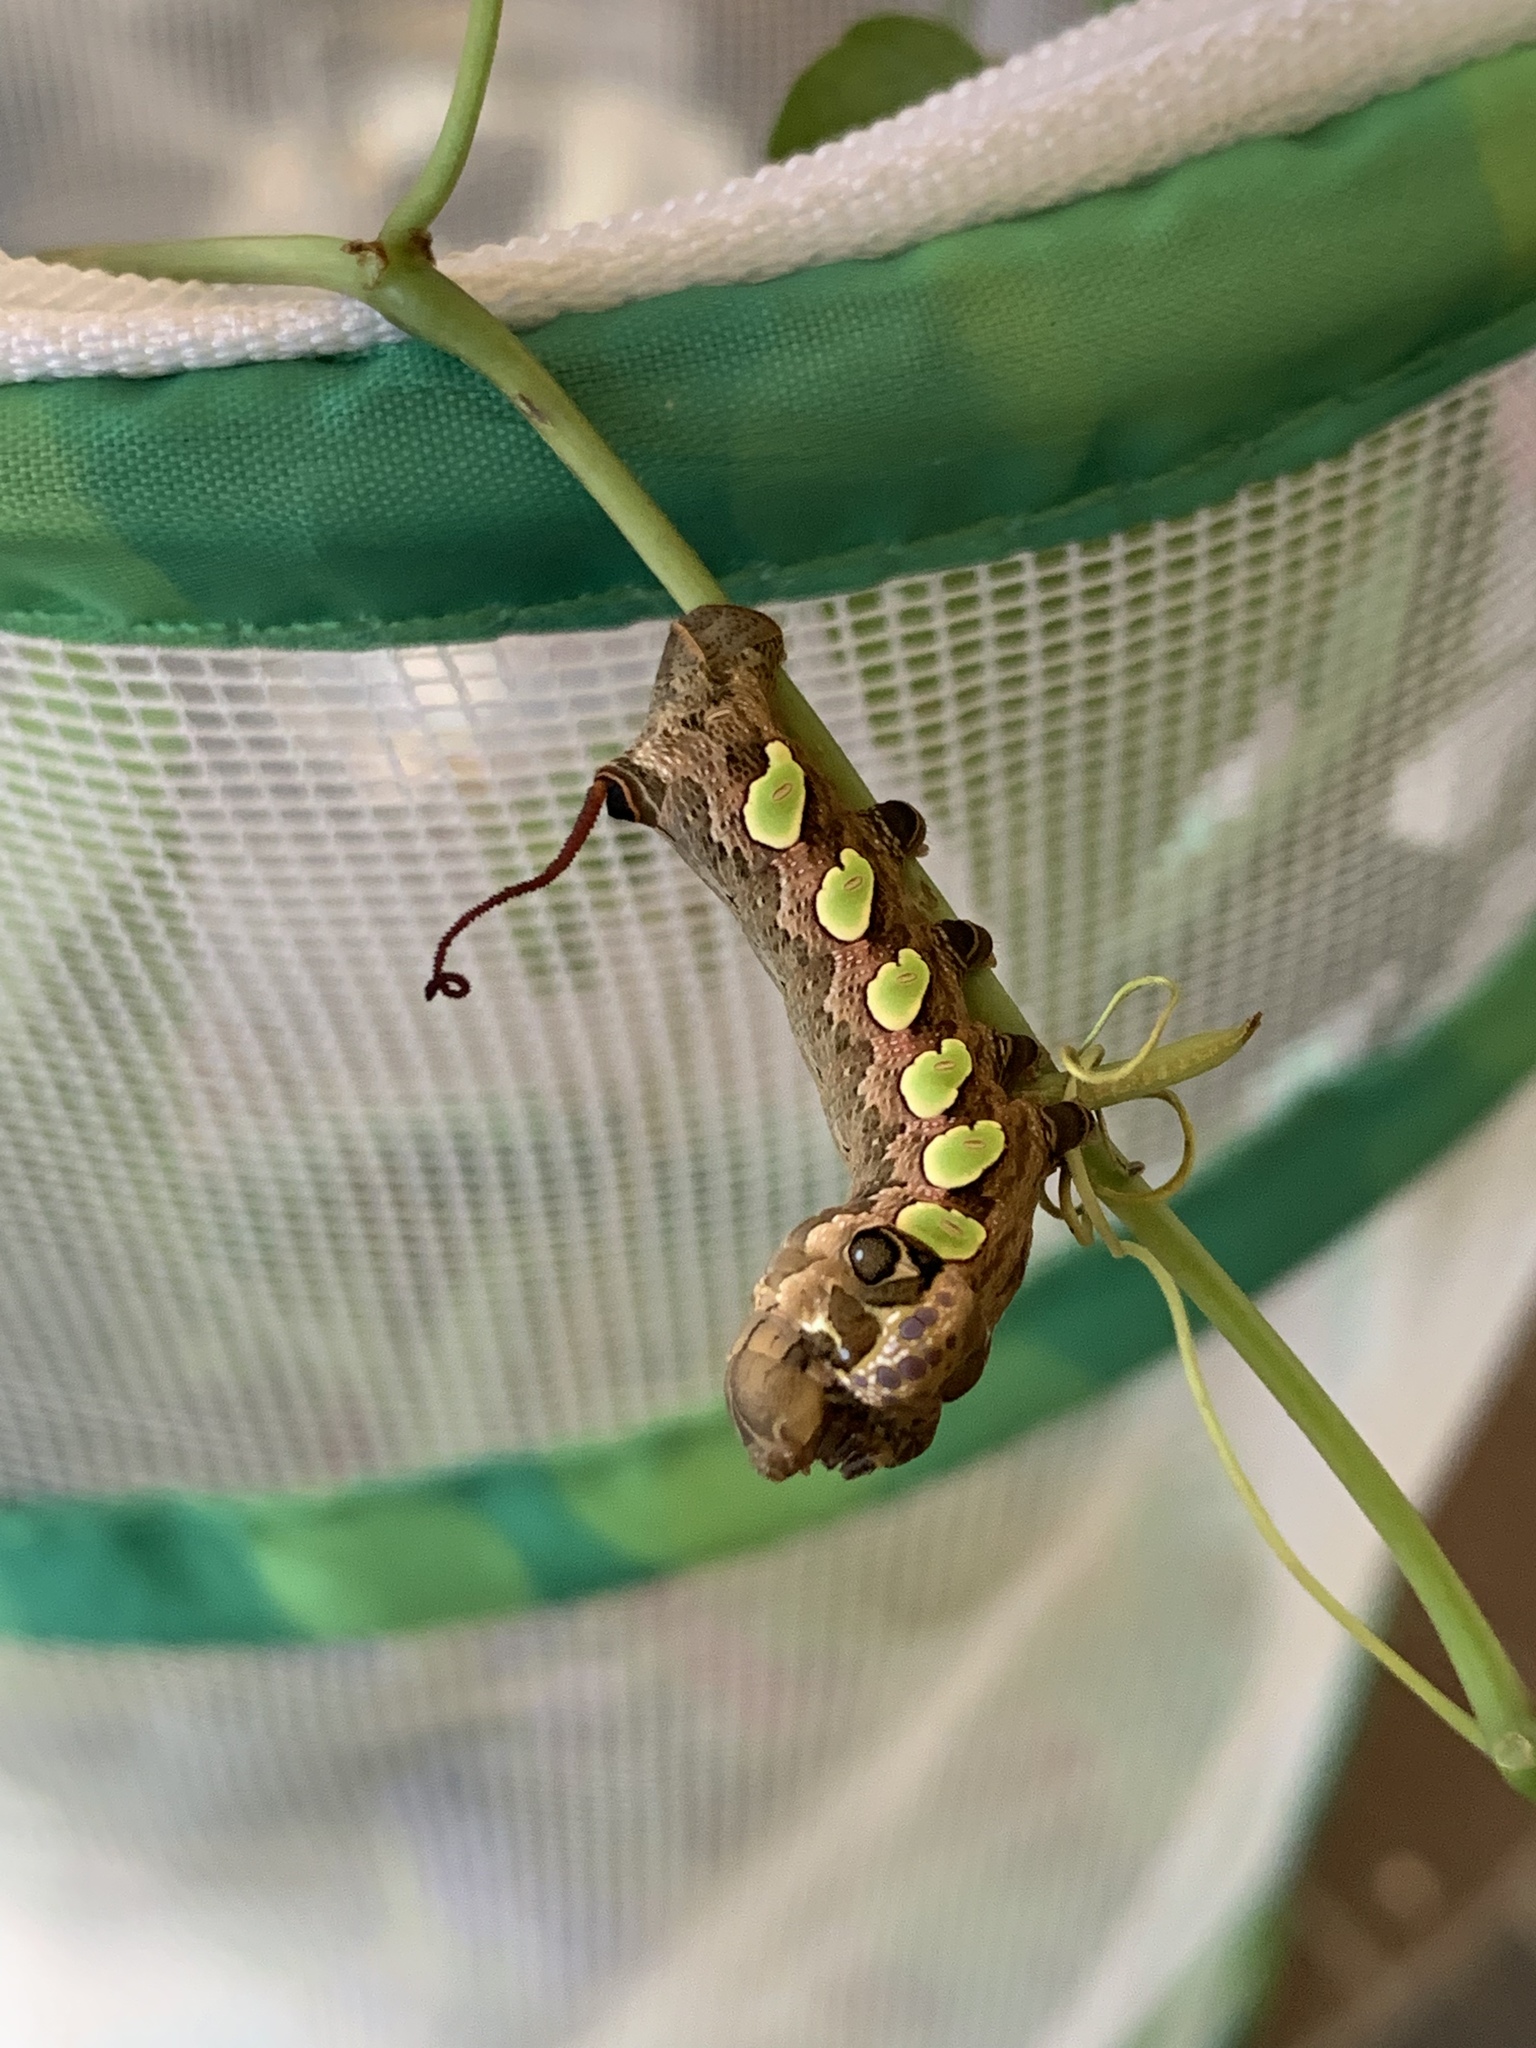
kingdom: Animalia
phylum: Arthropoda
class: Insecta
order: Lepidoptera
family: Sphingidae
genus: Eumorpha
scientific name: Eumorpha labruscae
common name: Gaudy sphinx
